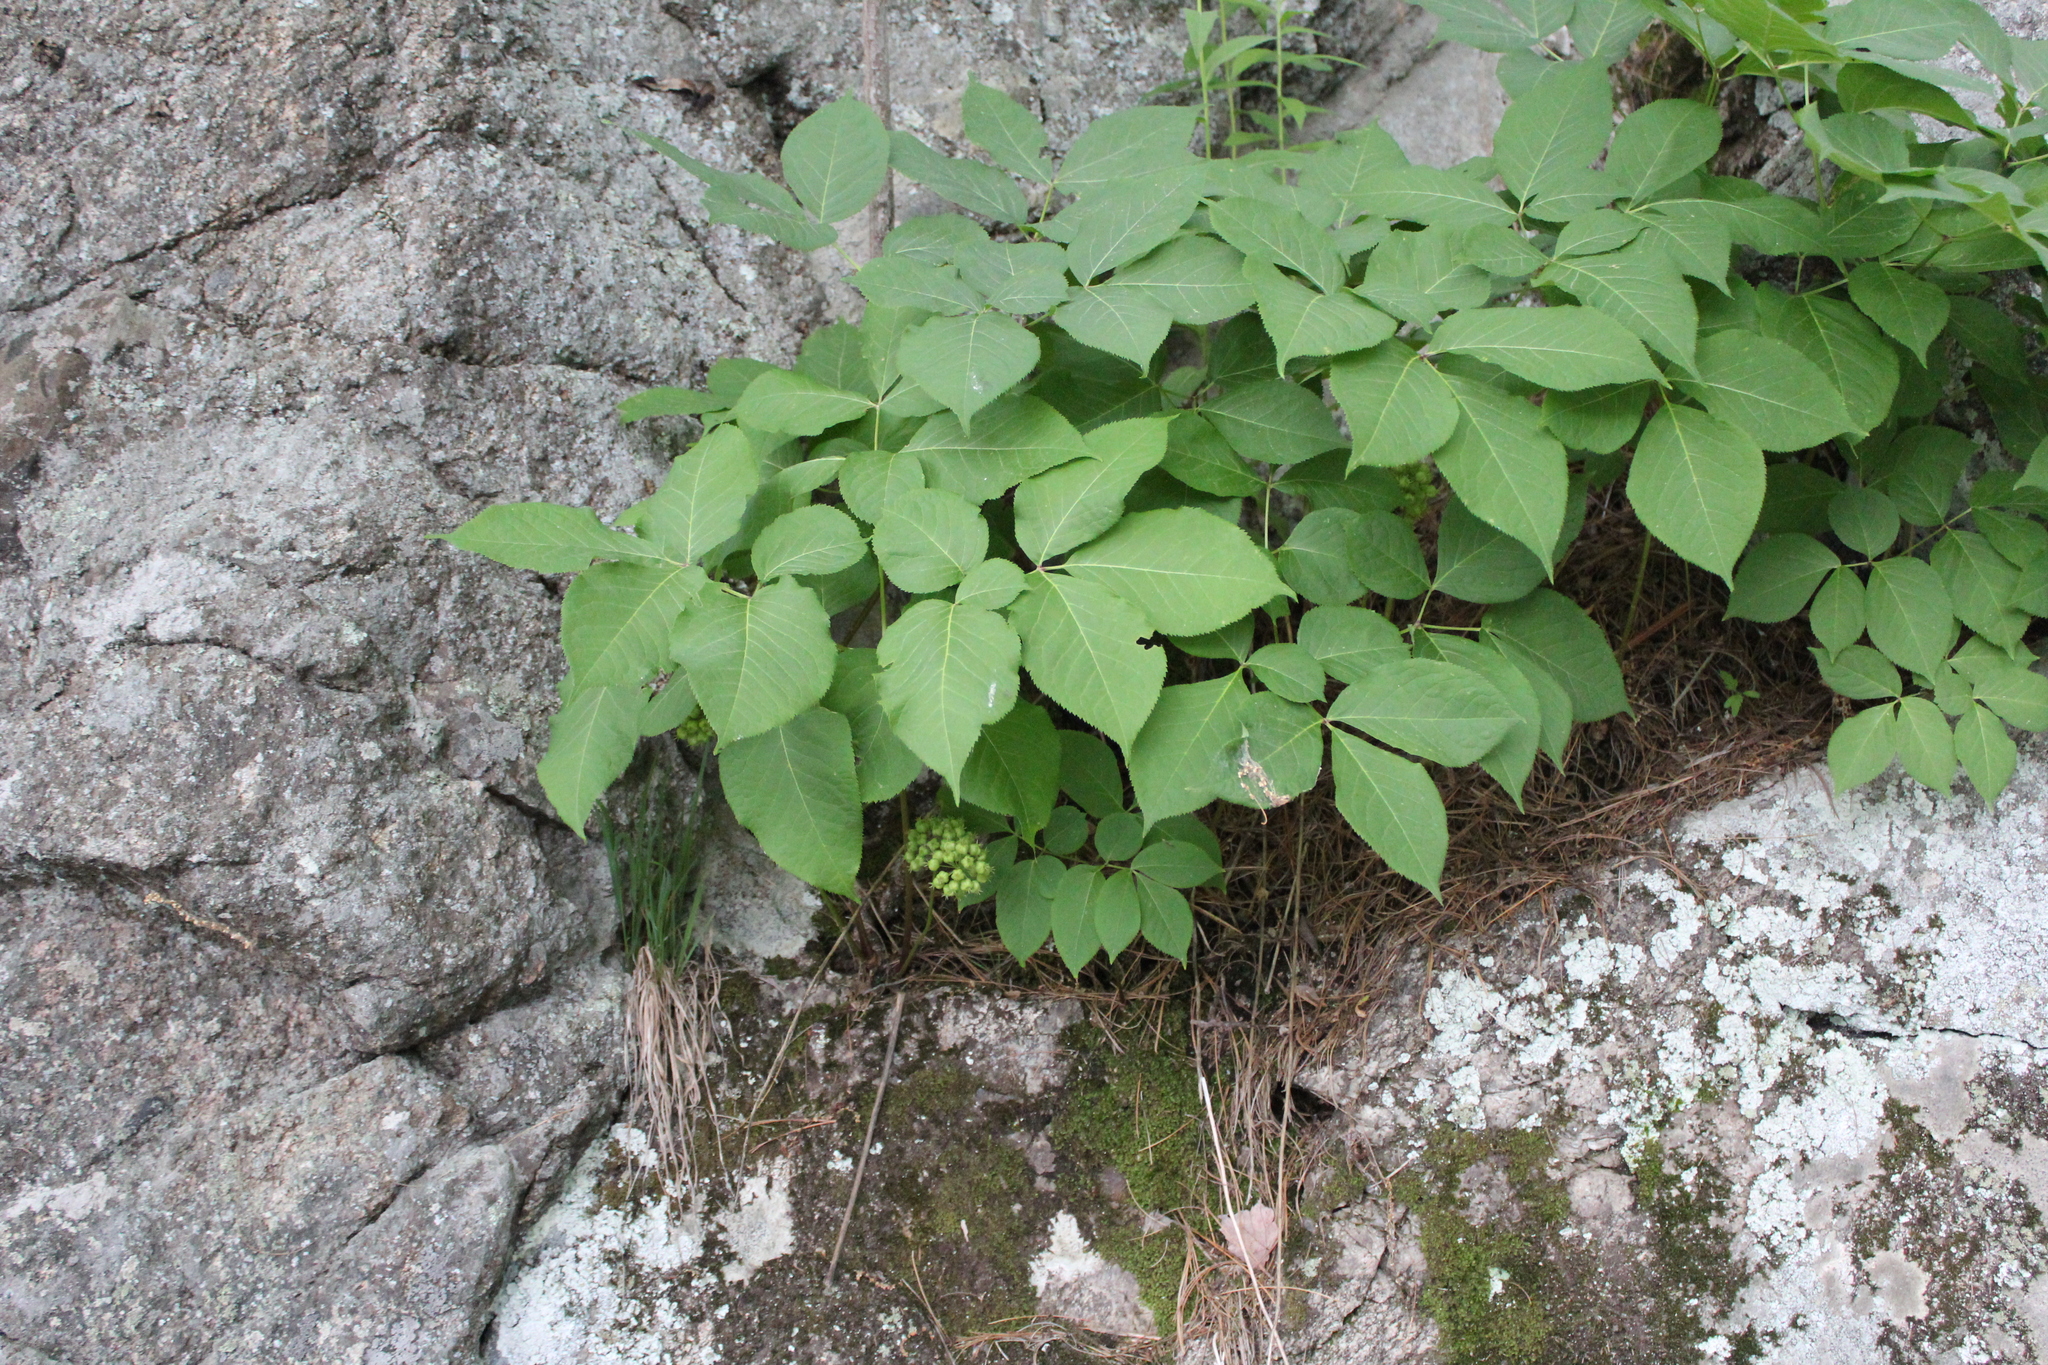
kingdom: Plantae
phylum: Tracheophyta
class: Magnoliopsida
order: Apiales
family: Araliaceae
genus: Aralia
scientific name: Aralia nudicaulis
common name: Wild sarsaparilla
